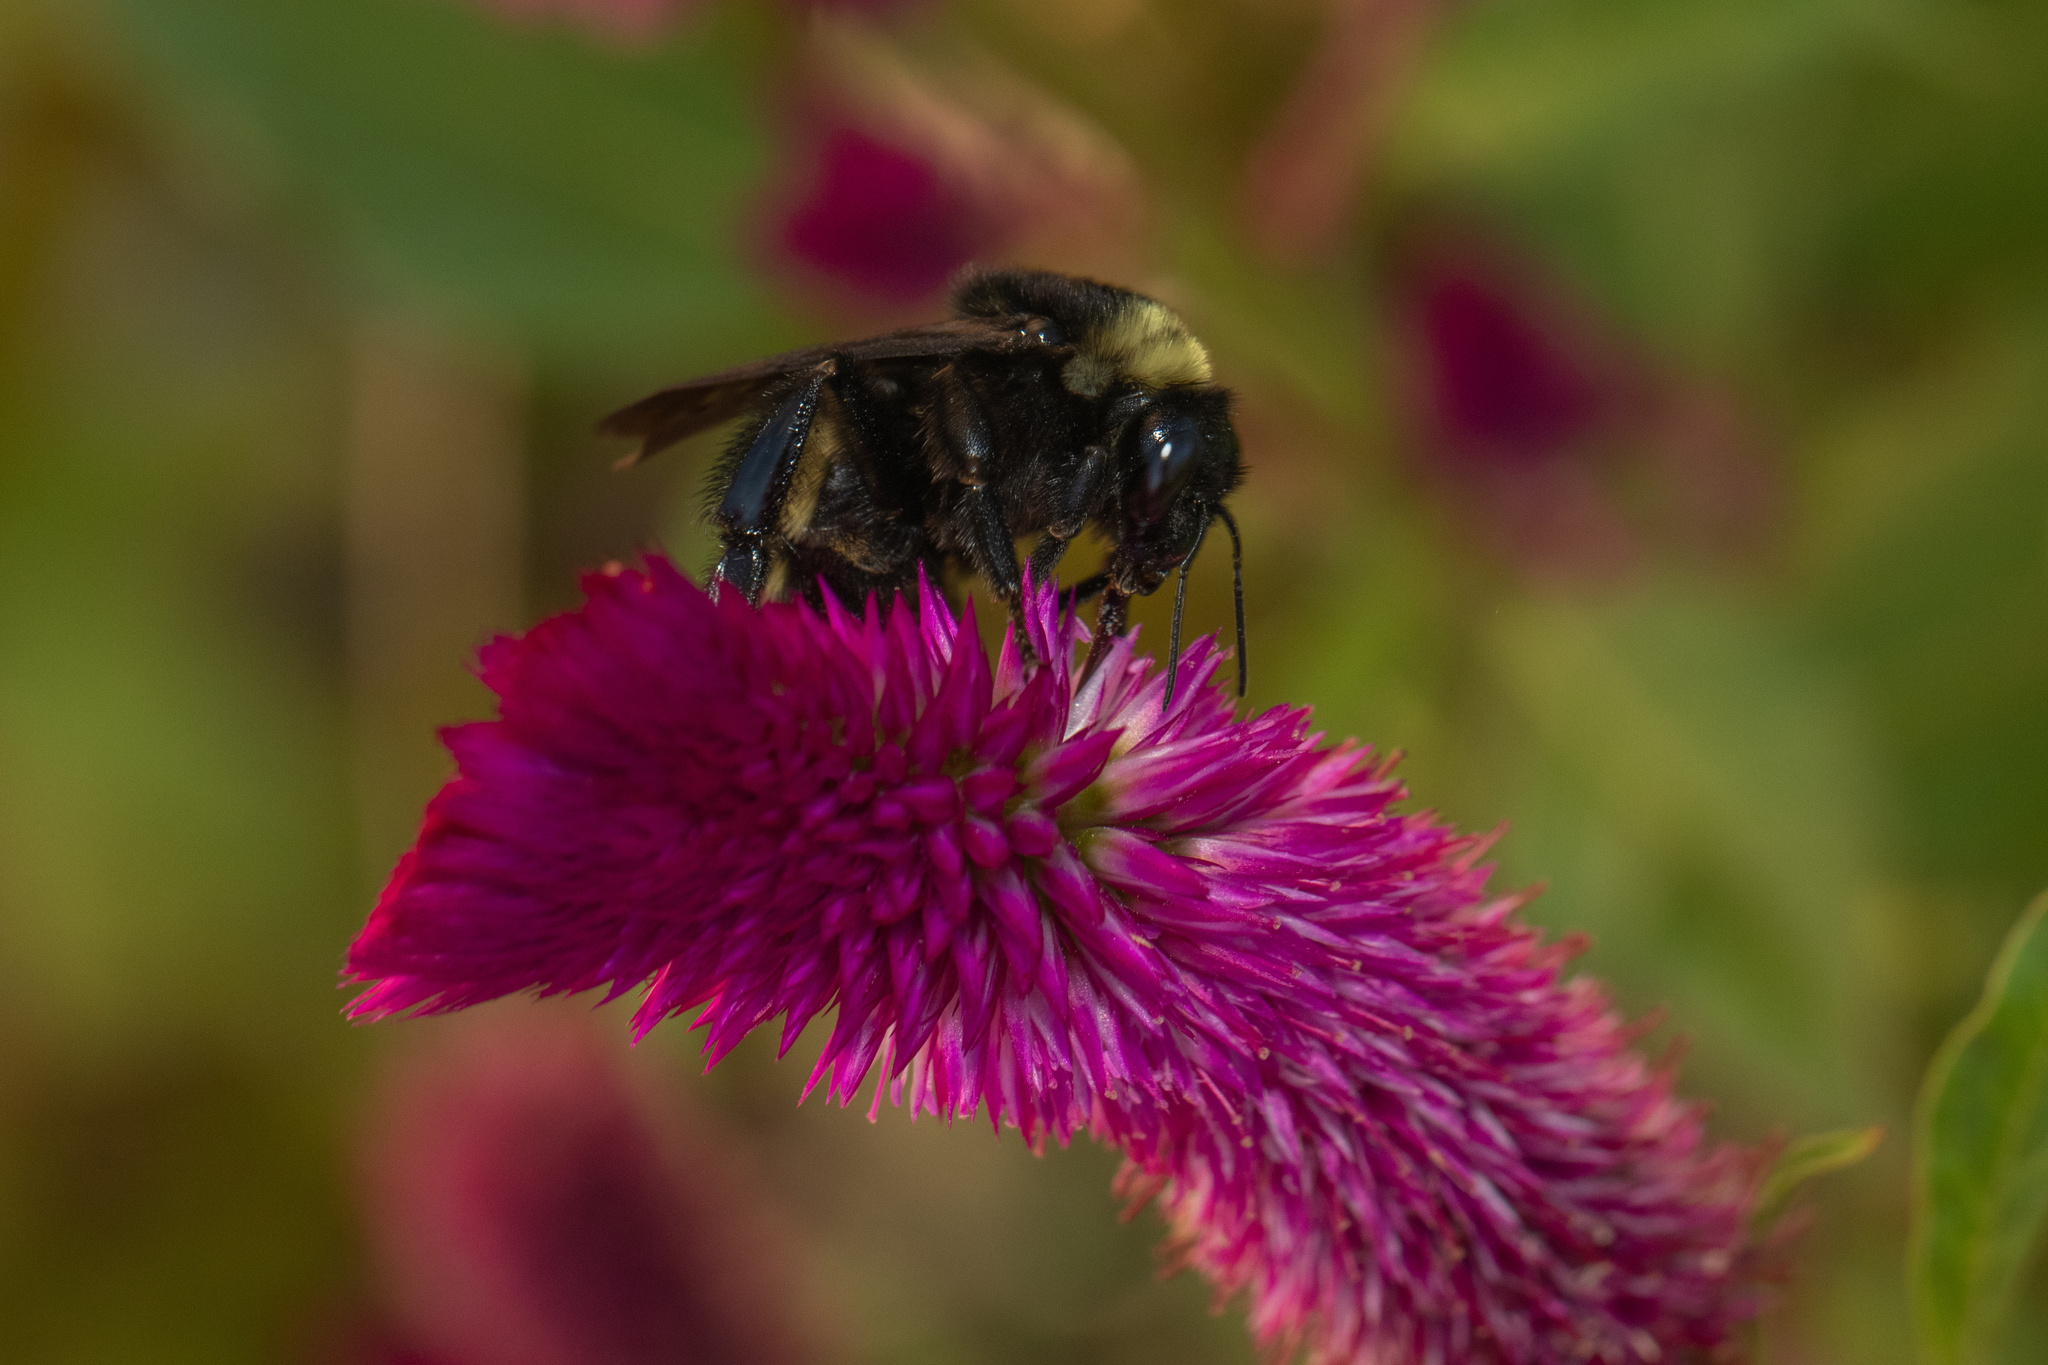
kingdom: Animalia
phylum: Arthropoda
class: Insecta
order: Hymenoptera
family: Apidae
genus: Bombus
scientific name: Bombus pensylvanicus
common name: Bumble bee
